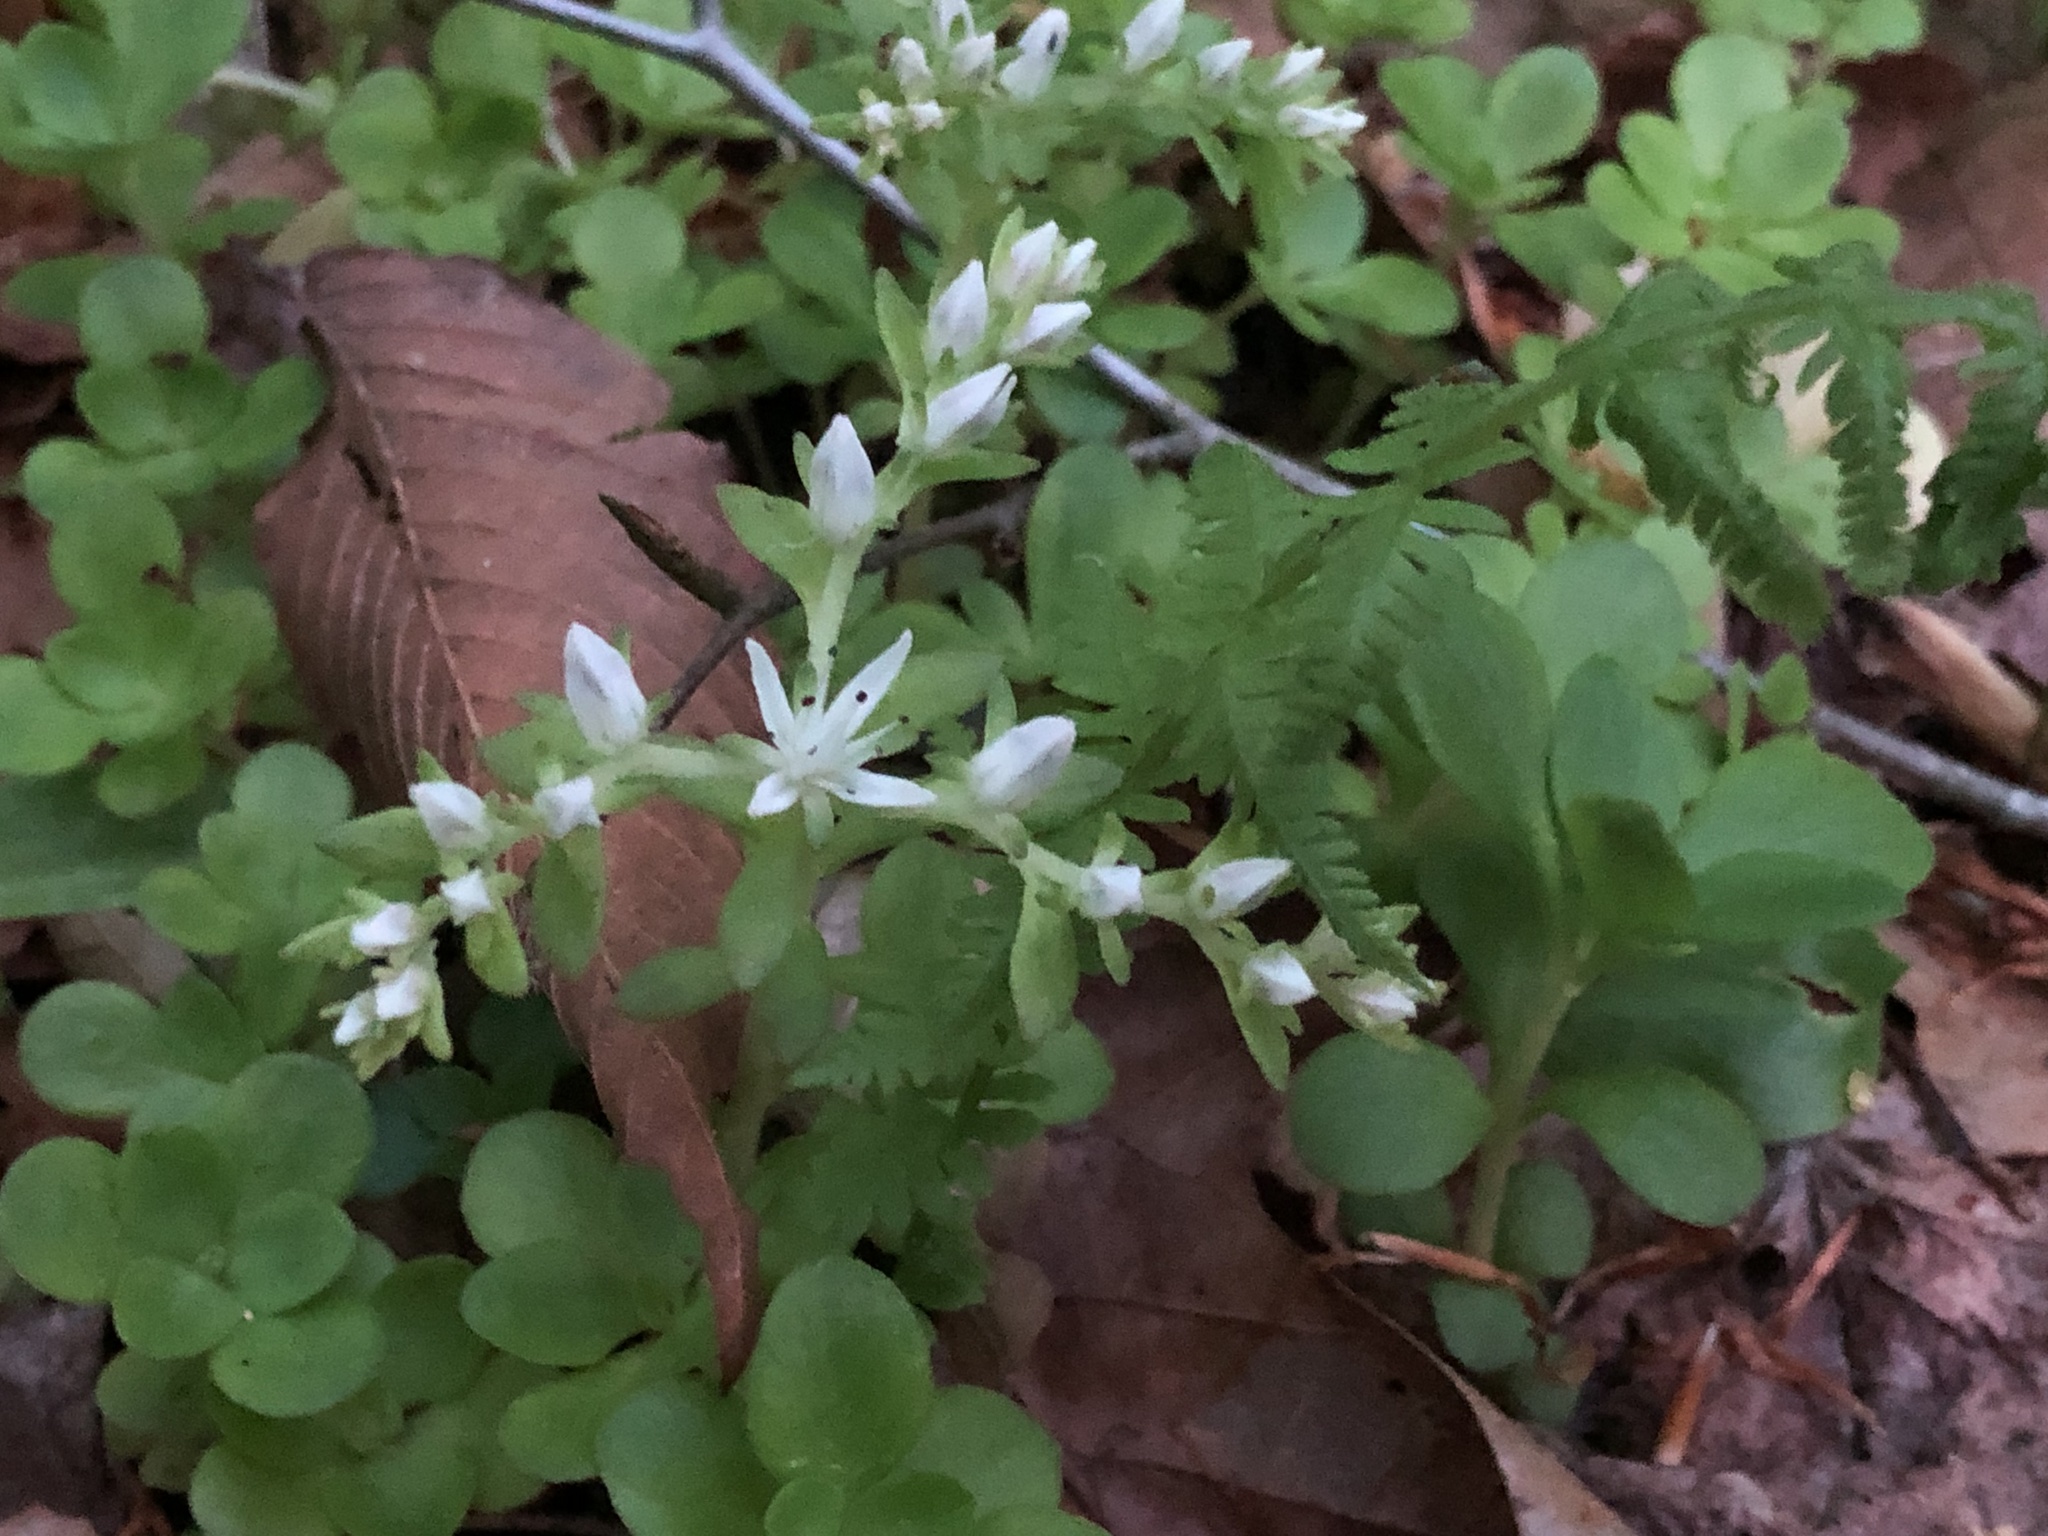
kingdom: Plantae
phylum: Tracheophyta
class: Magnoliopsida
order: Saxifragales
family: Crassulaceae
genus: Sedum
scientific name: Sedum ternatum
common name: Wild stonecrop
